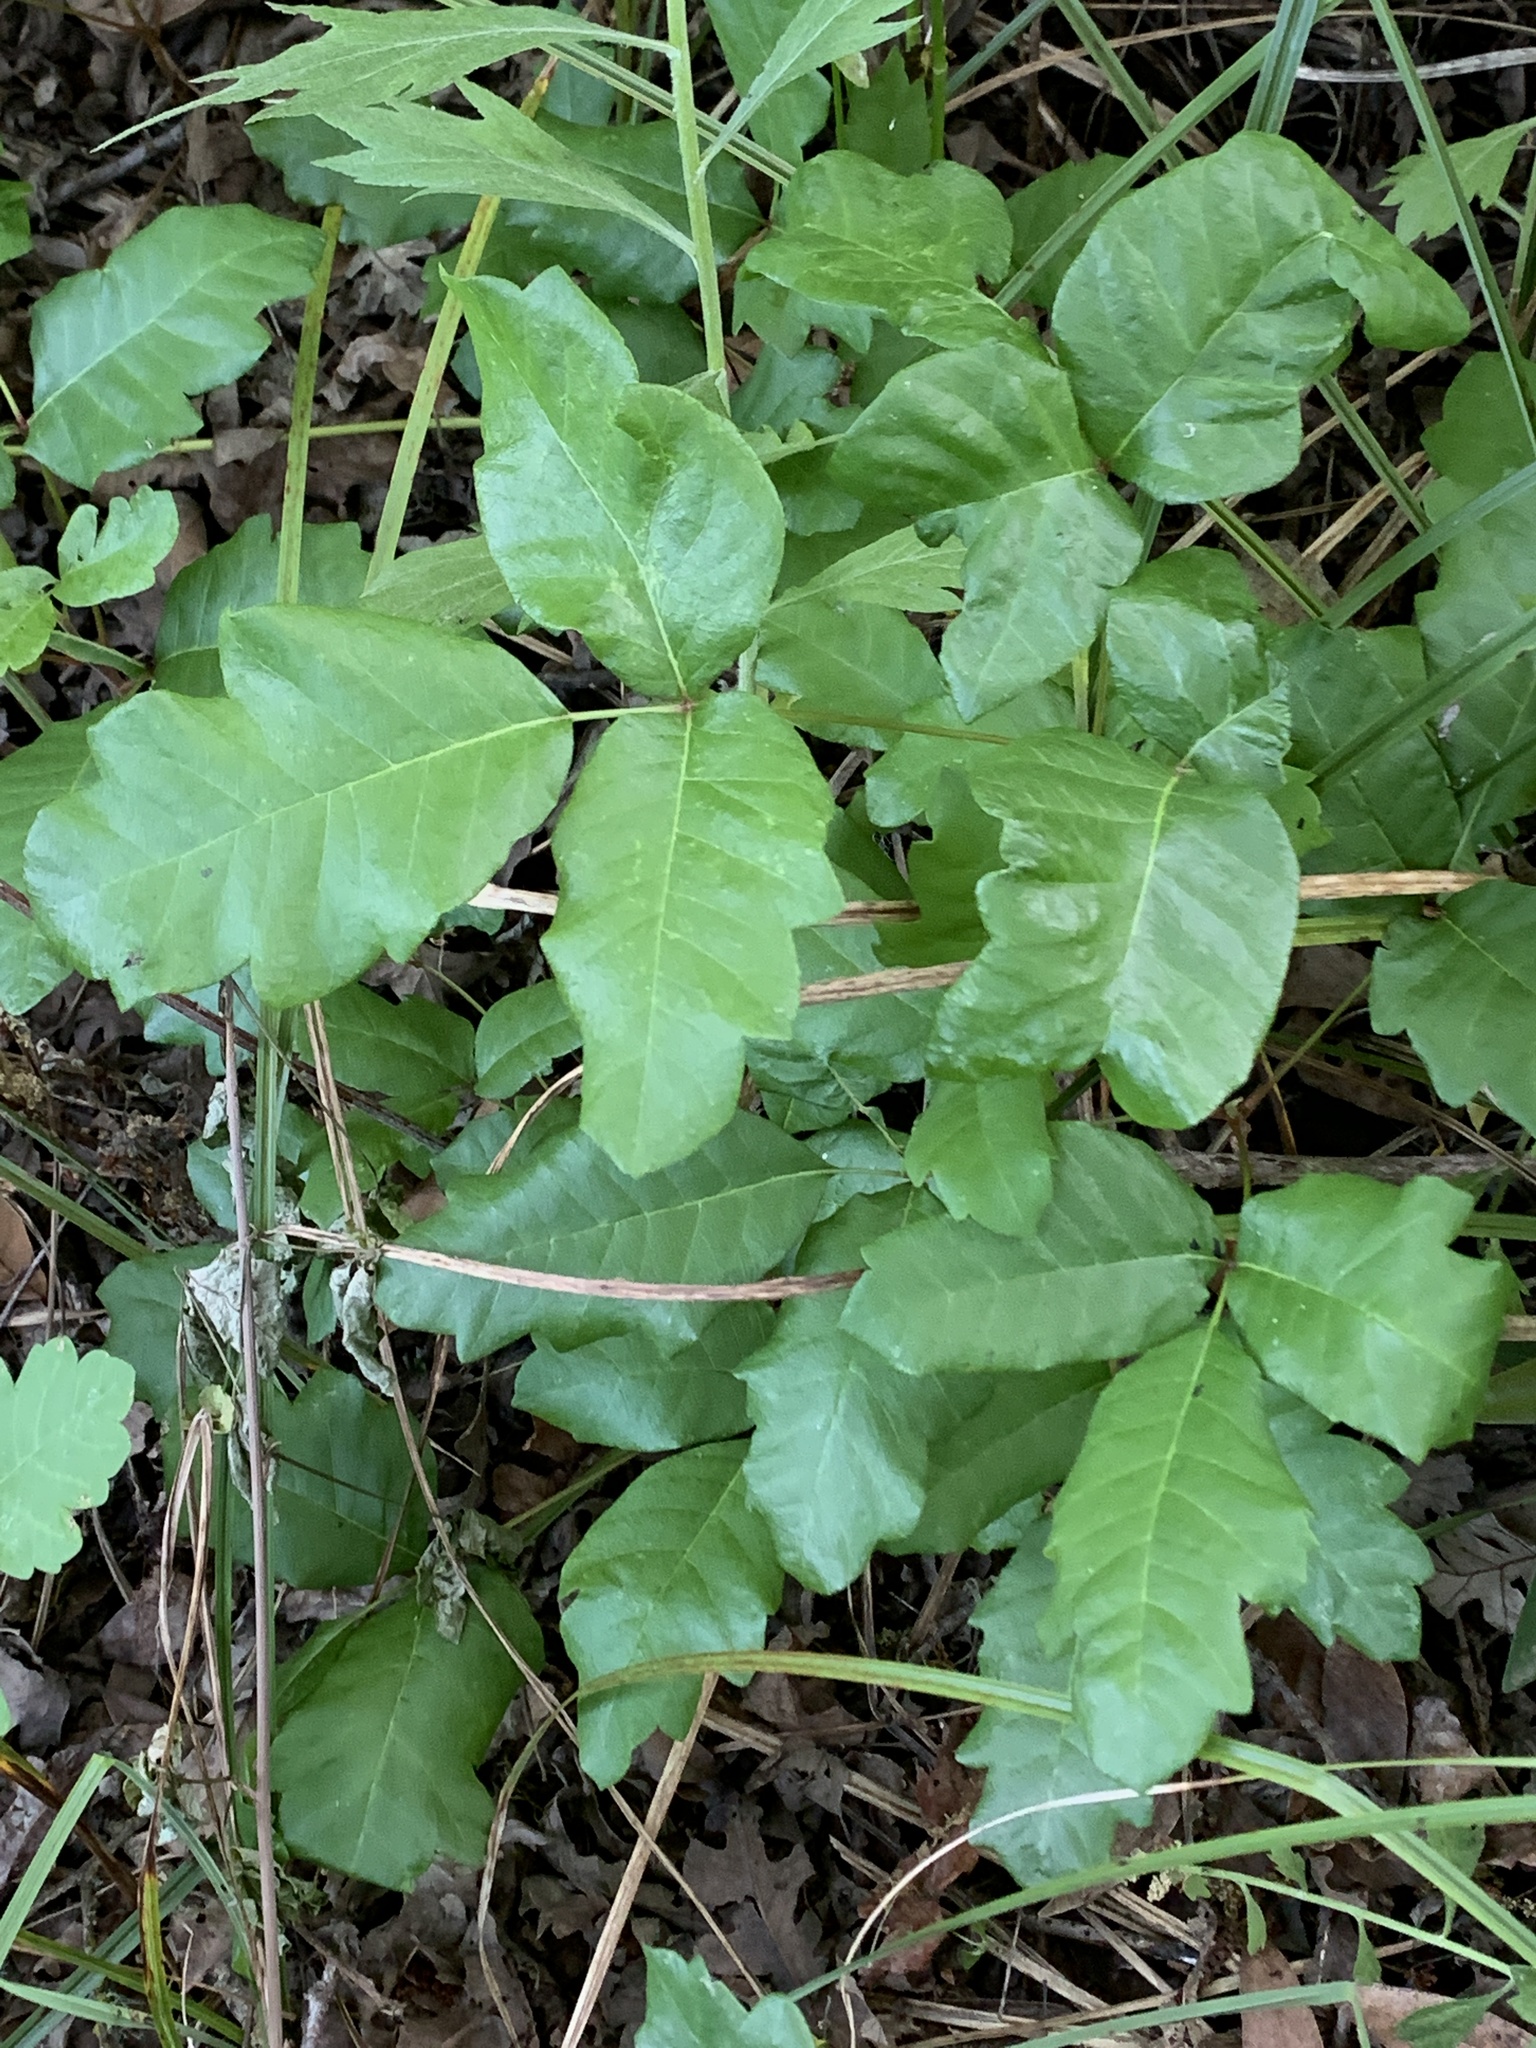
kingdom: Plantae
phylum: Tracheophyta
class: Magnoliopsida
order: Sapindales
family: Anacardiaceae
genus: Toxicodendron
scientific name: Toxicodendron diversilobum
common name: Pacific poison-oak
